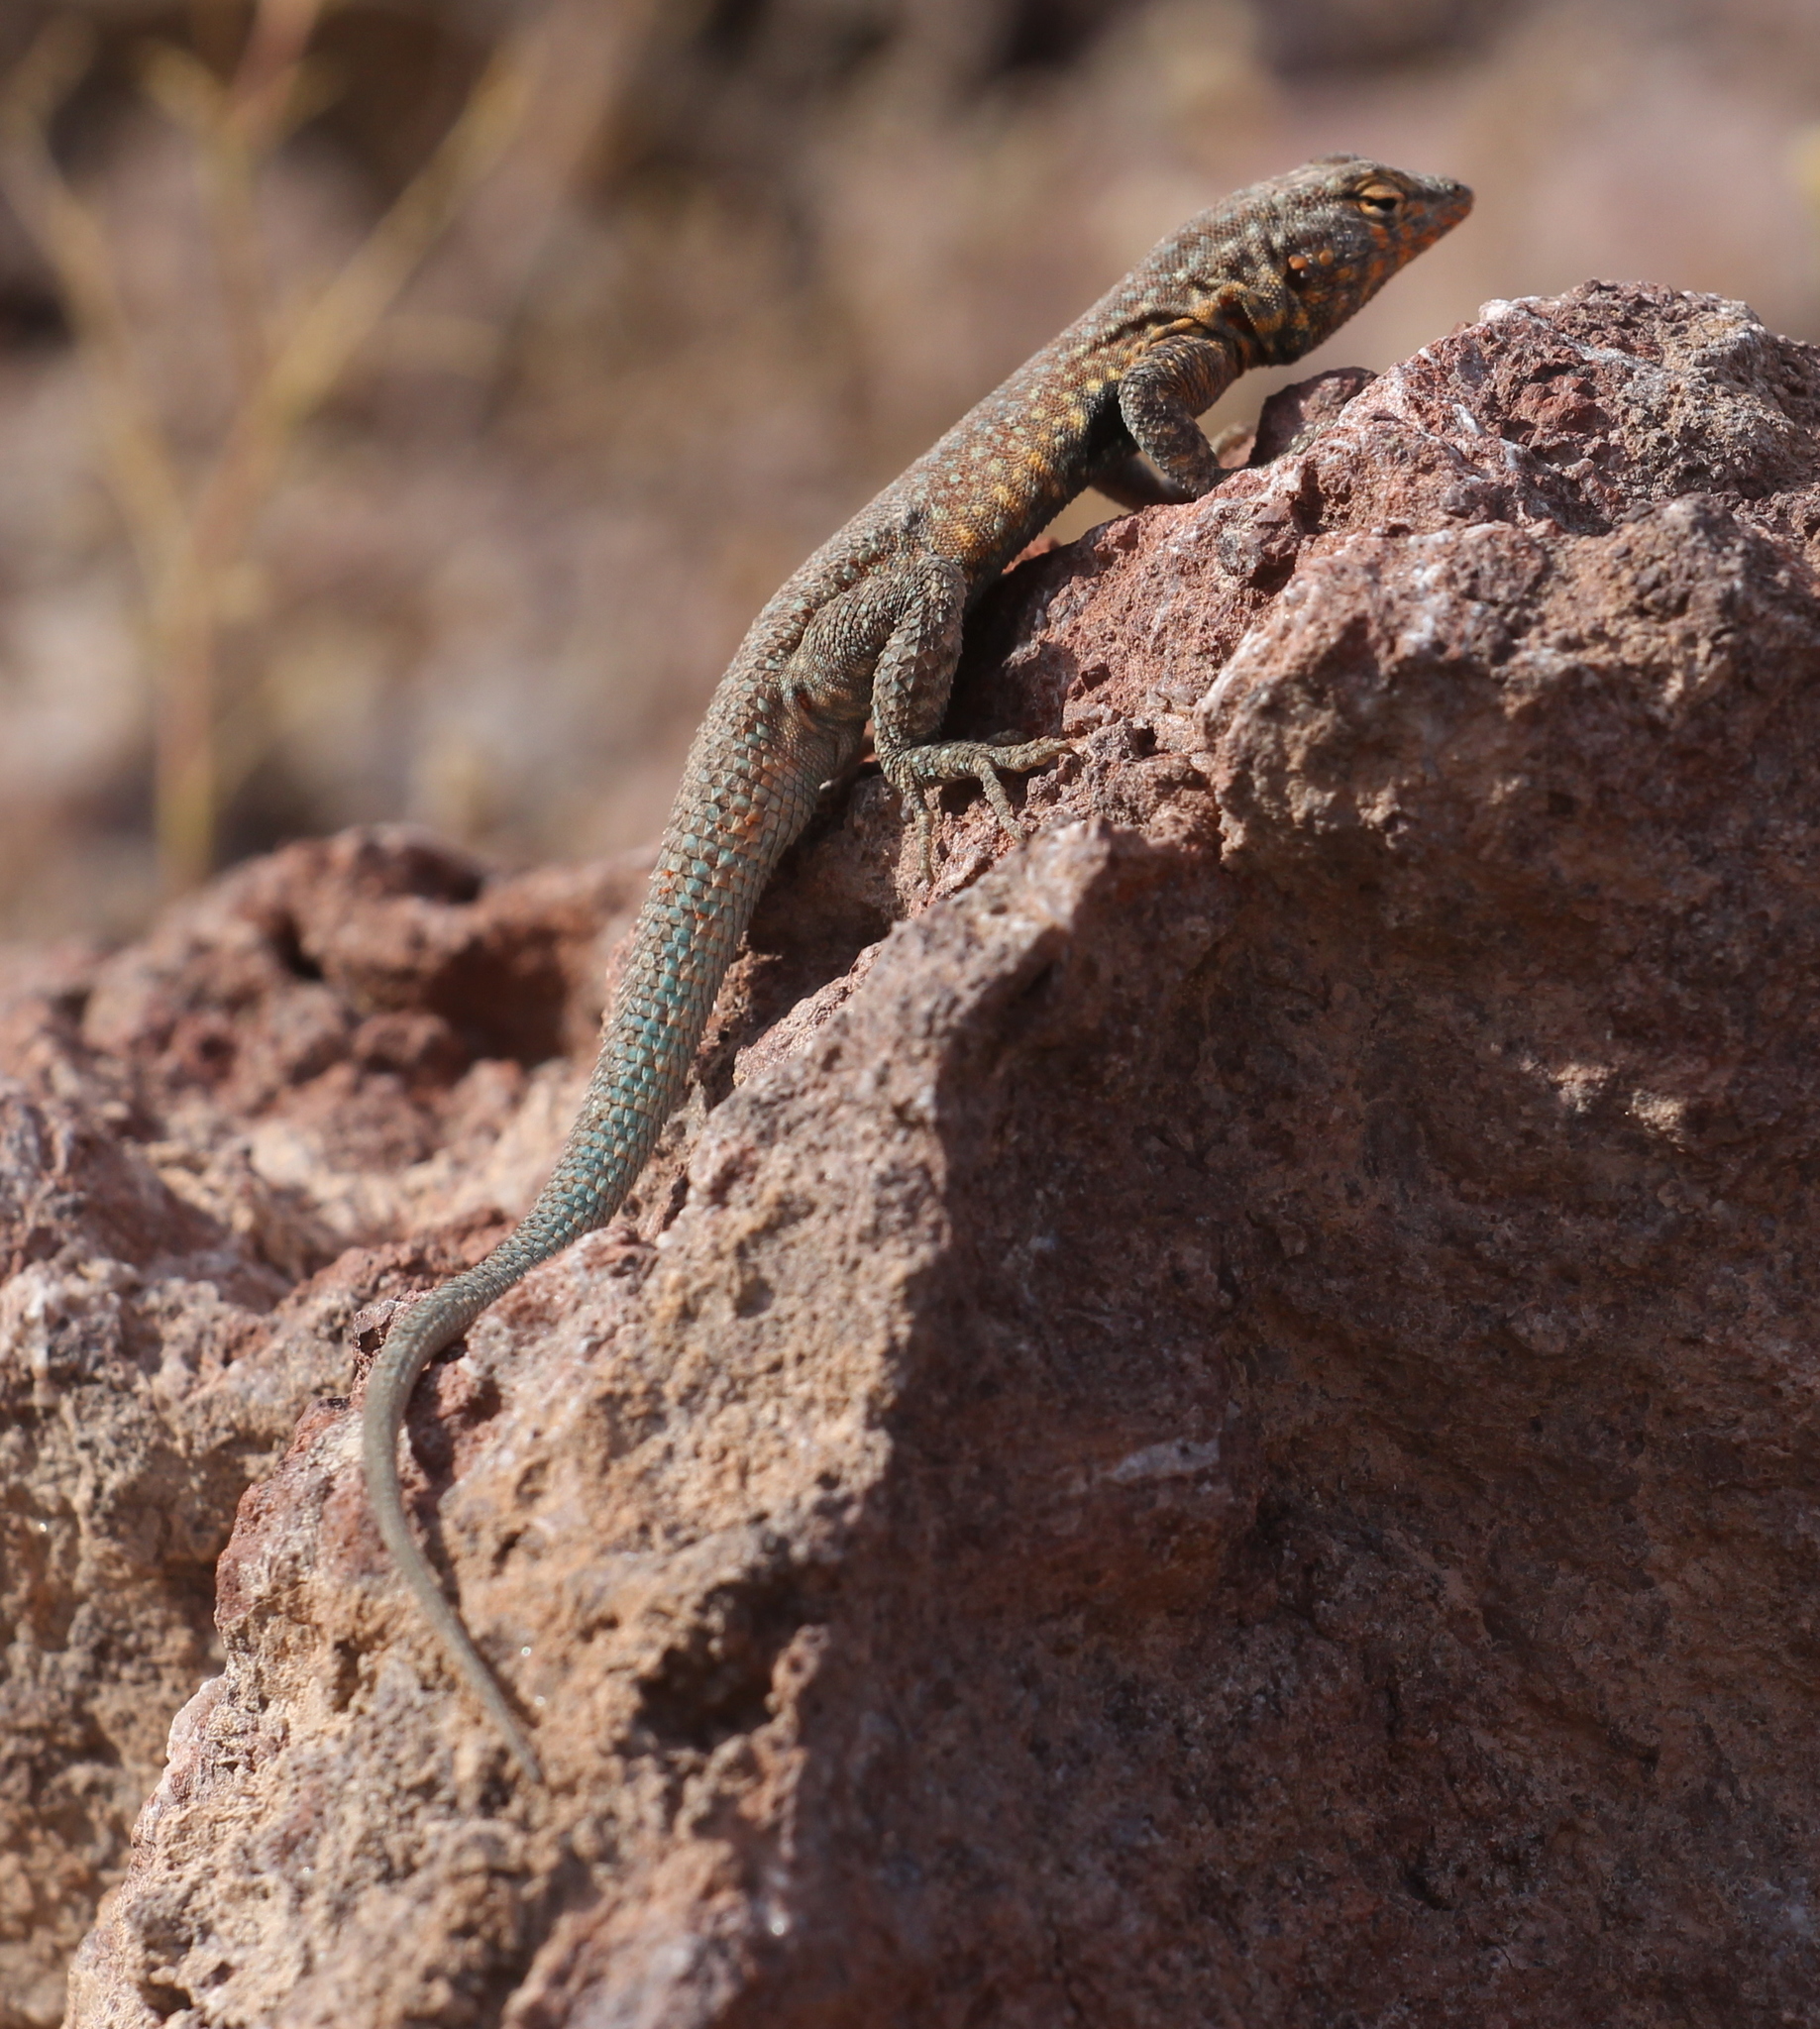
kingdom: Animalia
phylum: Chordata
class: Squamata
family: Phrynosomatidae
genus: Uta
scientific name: Uta stansburiana
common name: Side-blotched lizard
